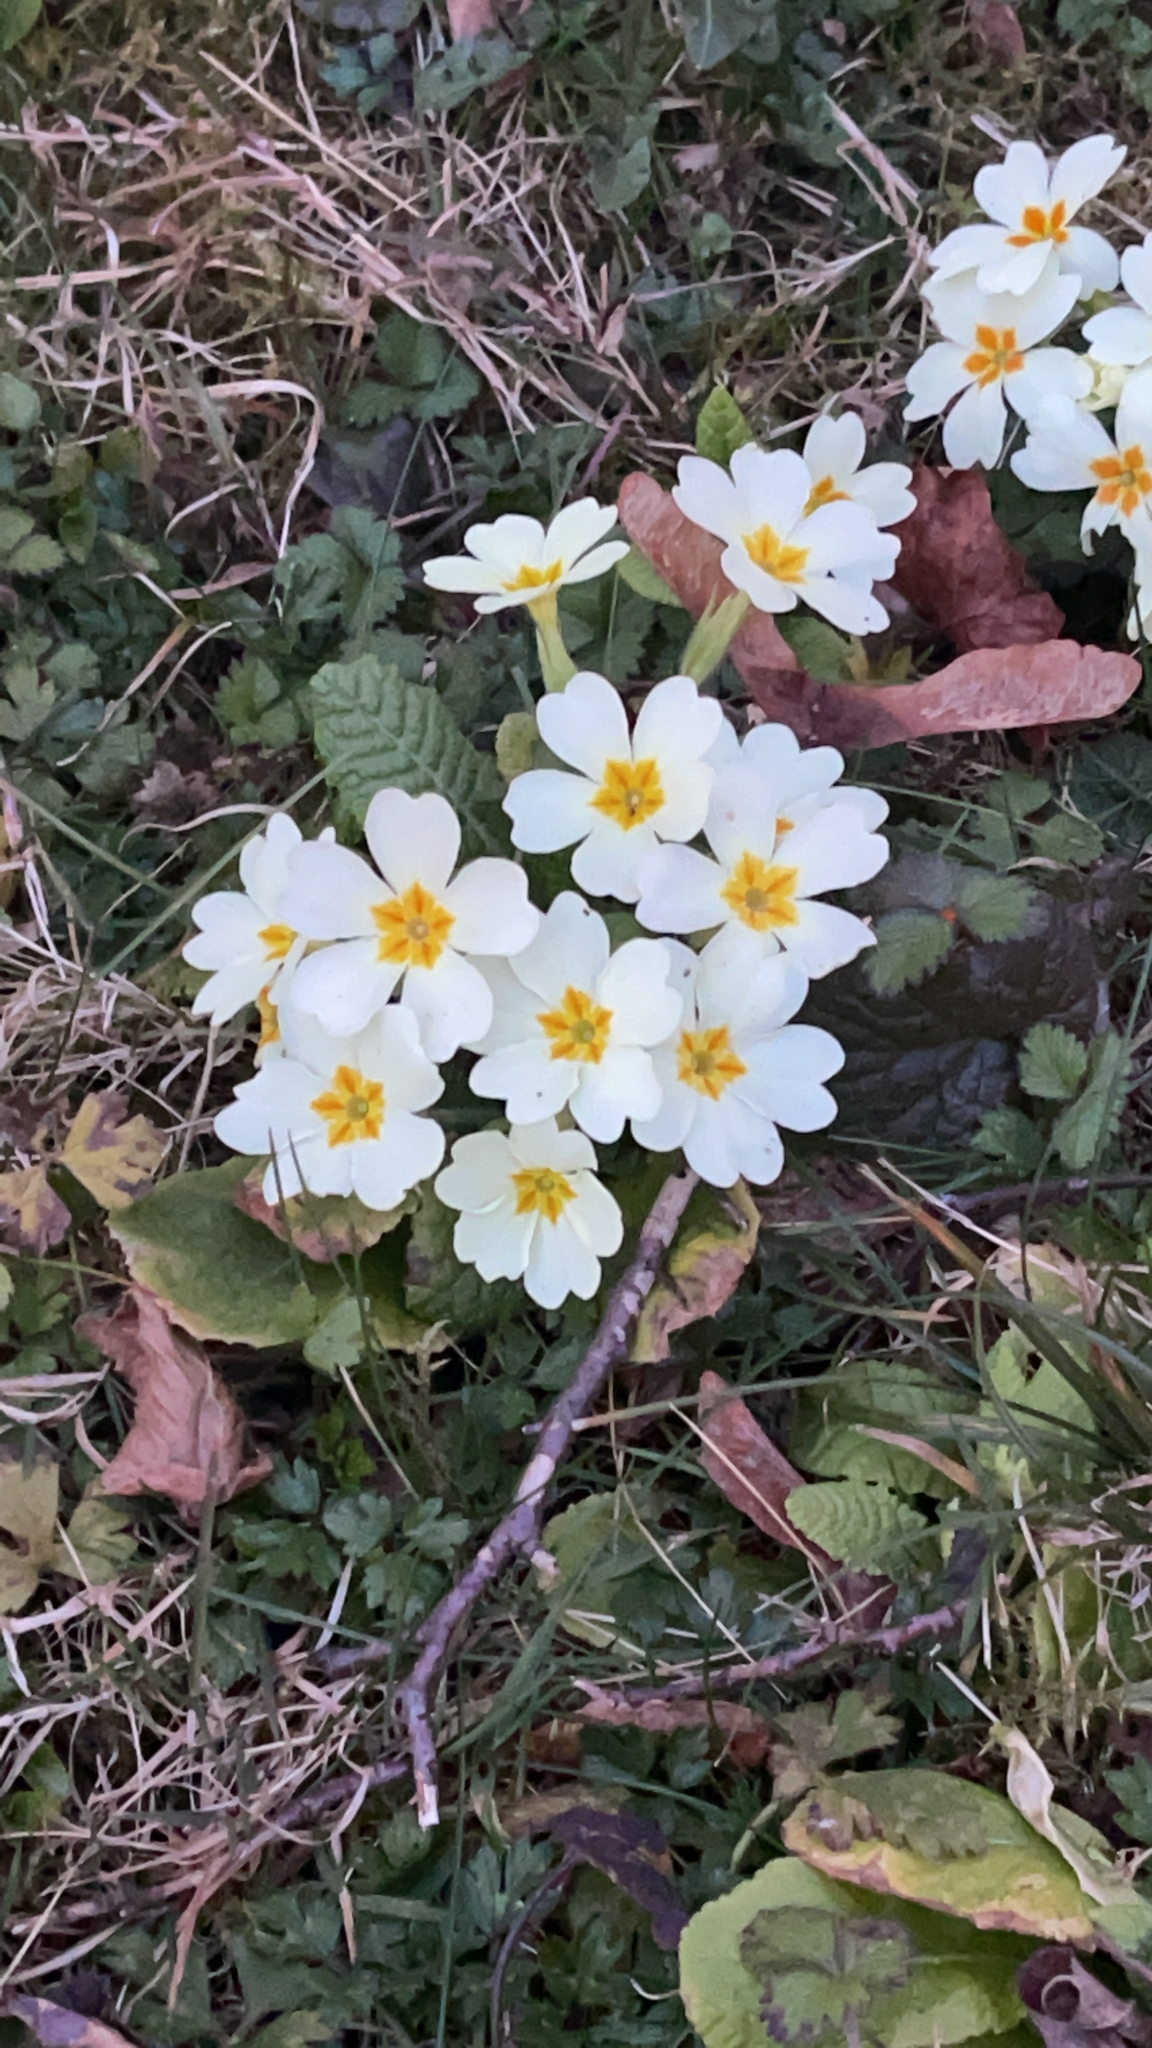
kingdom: Plantae
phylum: Tracheophyta
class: Magnoliopsida
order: Ericales
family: Primulaceae
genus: Primula
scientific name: Primula vulgaris
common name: Primrose
